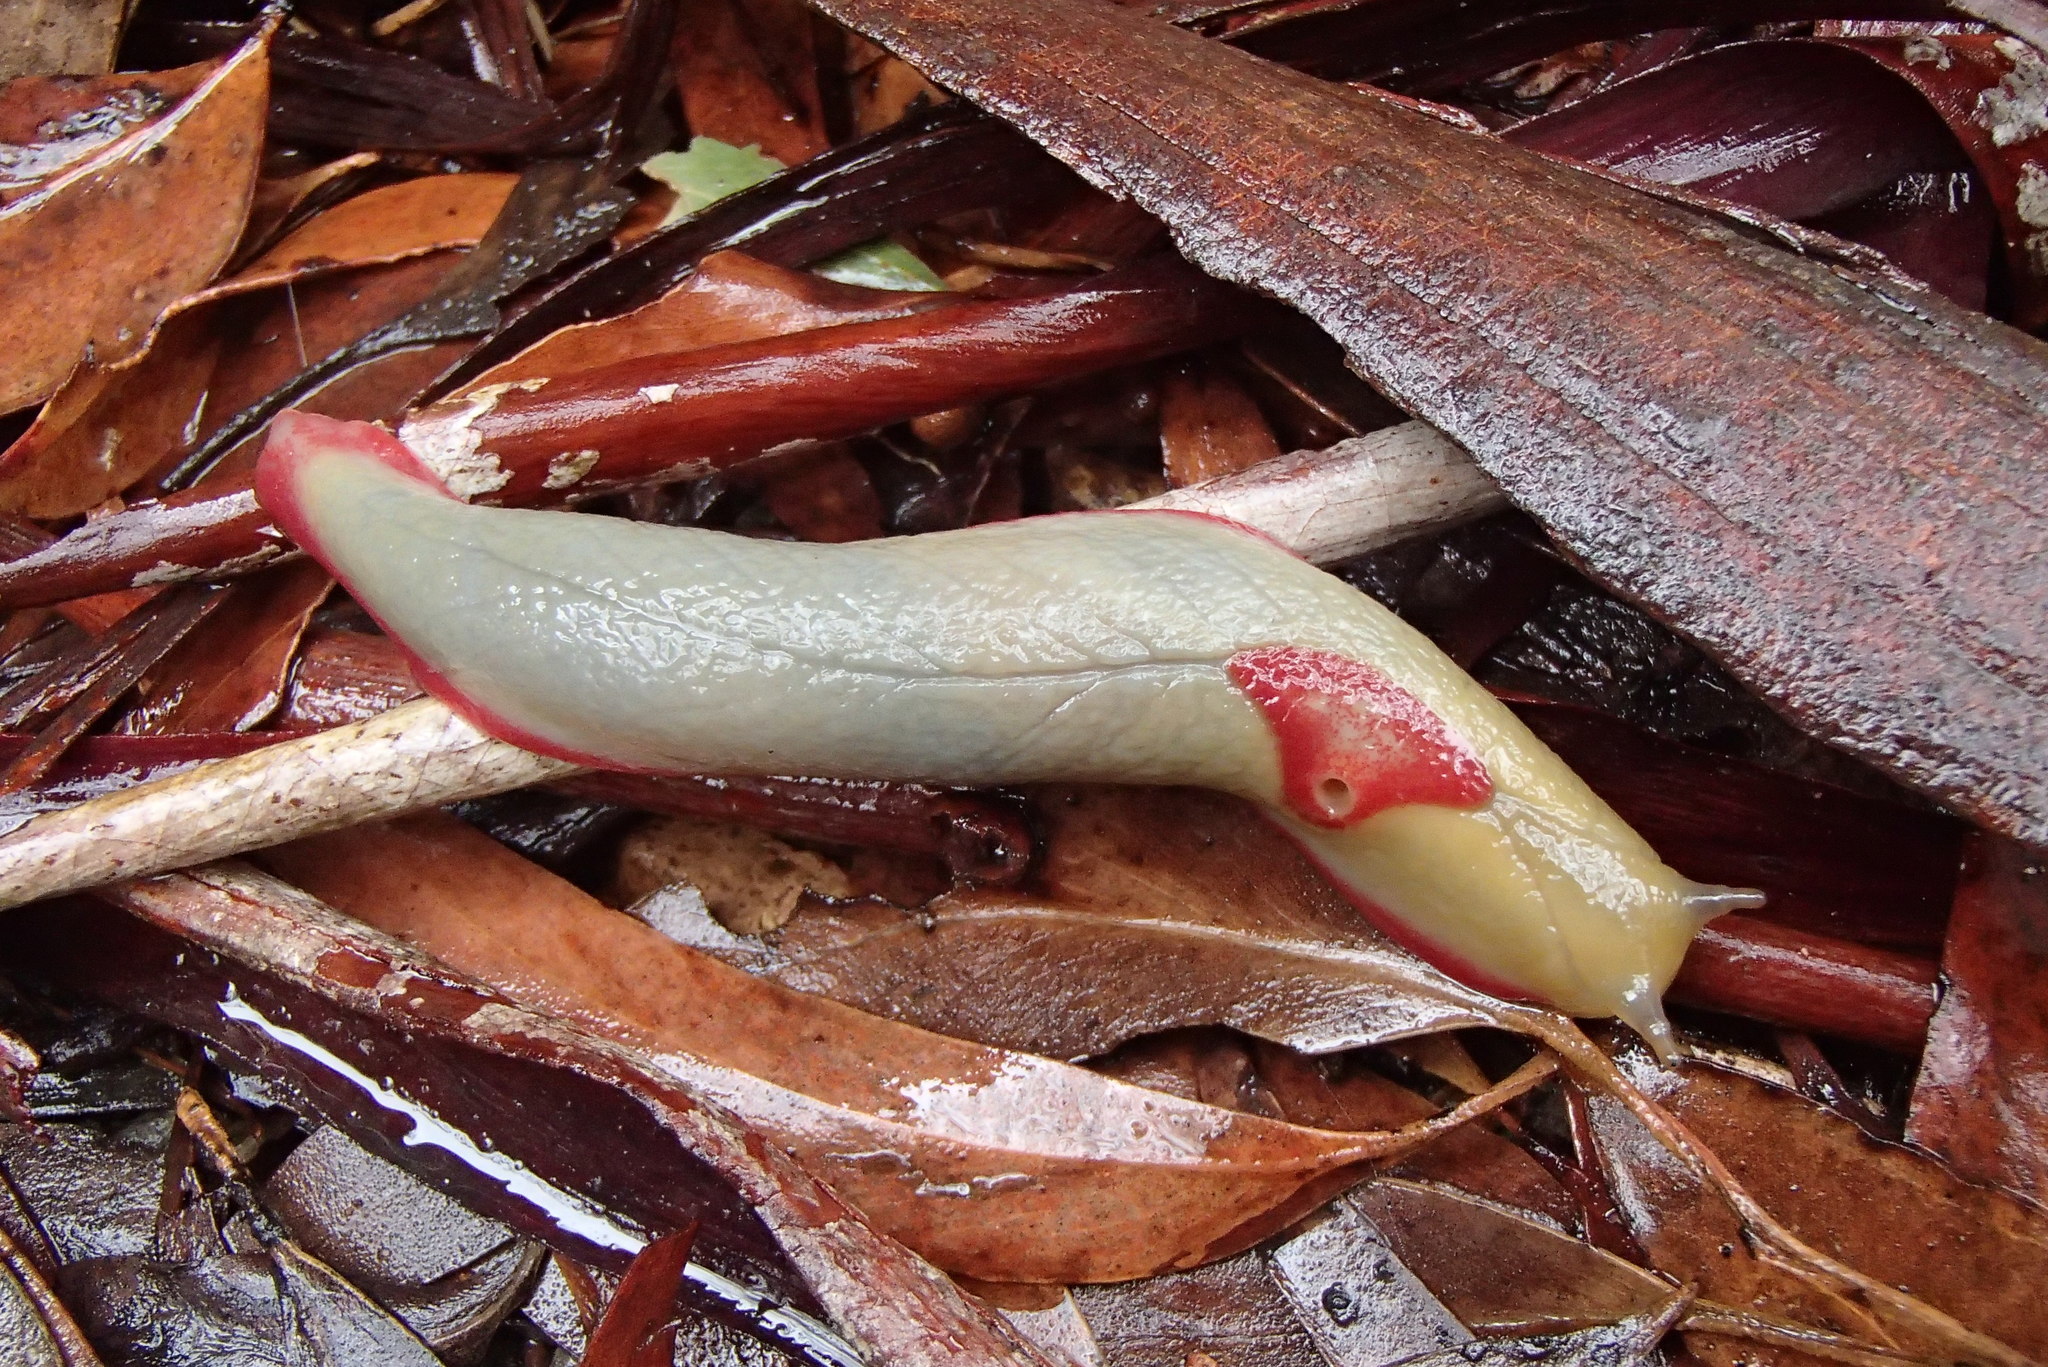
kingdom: Animalia
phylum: Mollusca
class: Gastropoda
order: Stylommatophora
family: Athoracophoridae
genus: Triboniophorus
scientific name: Triboniophorus graeffei
